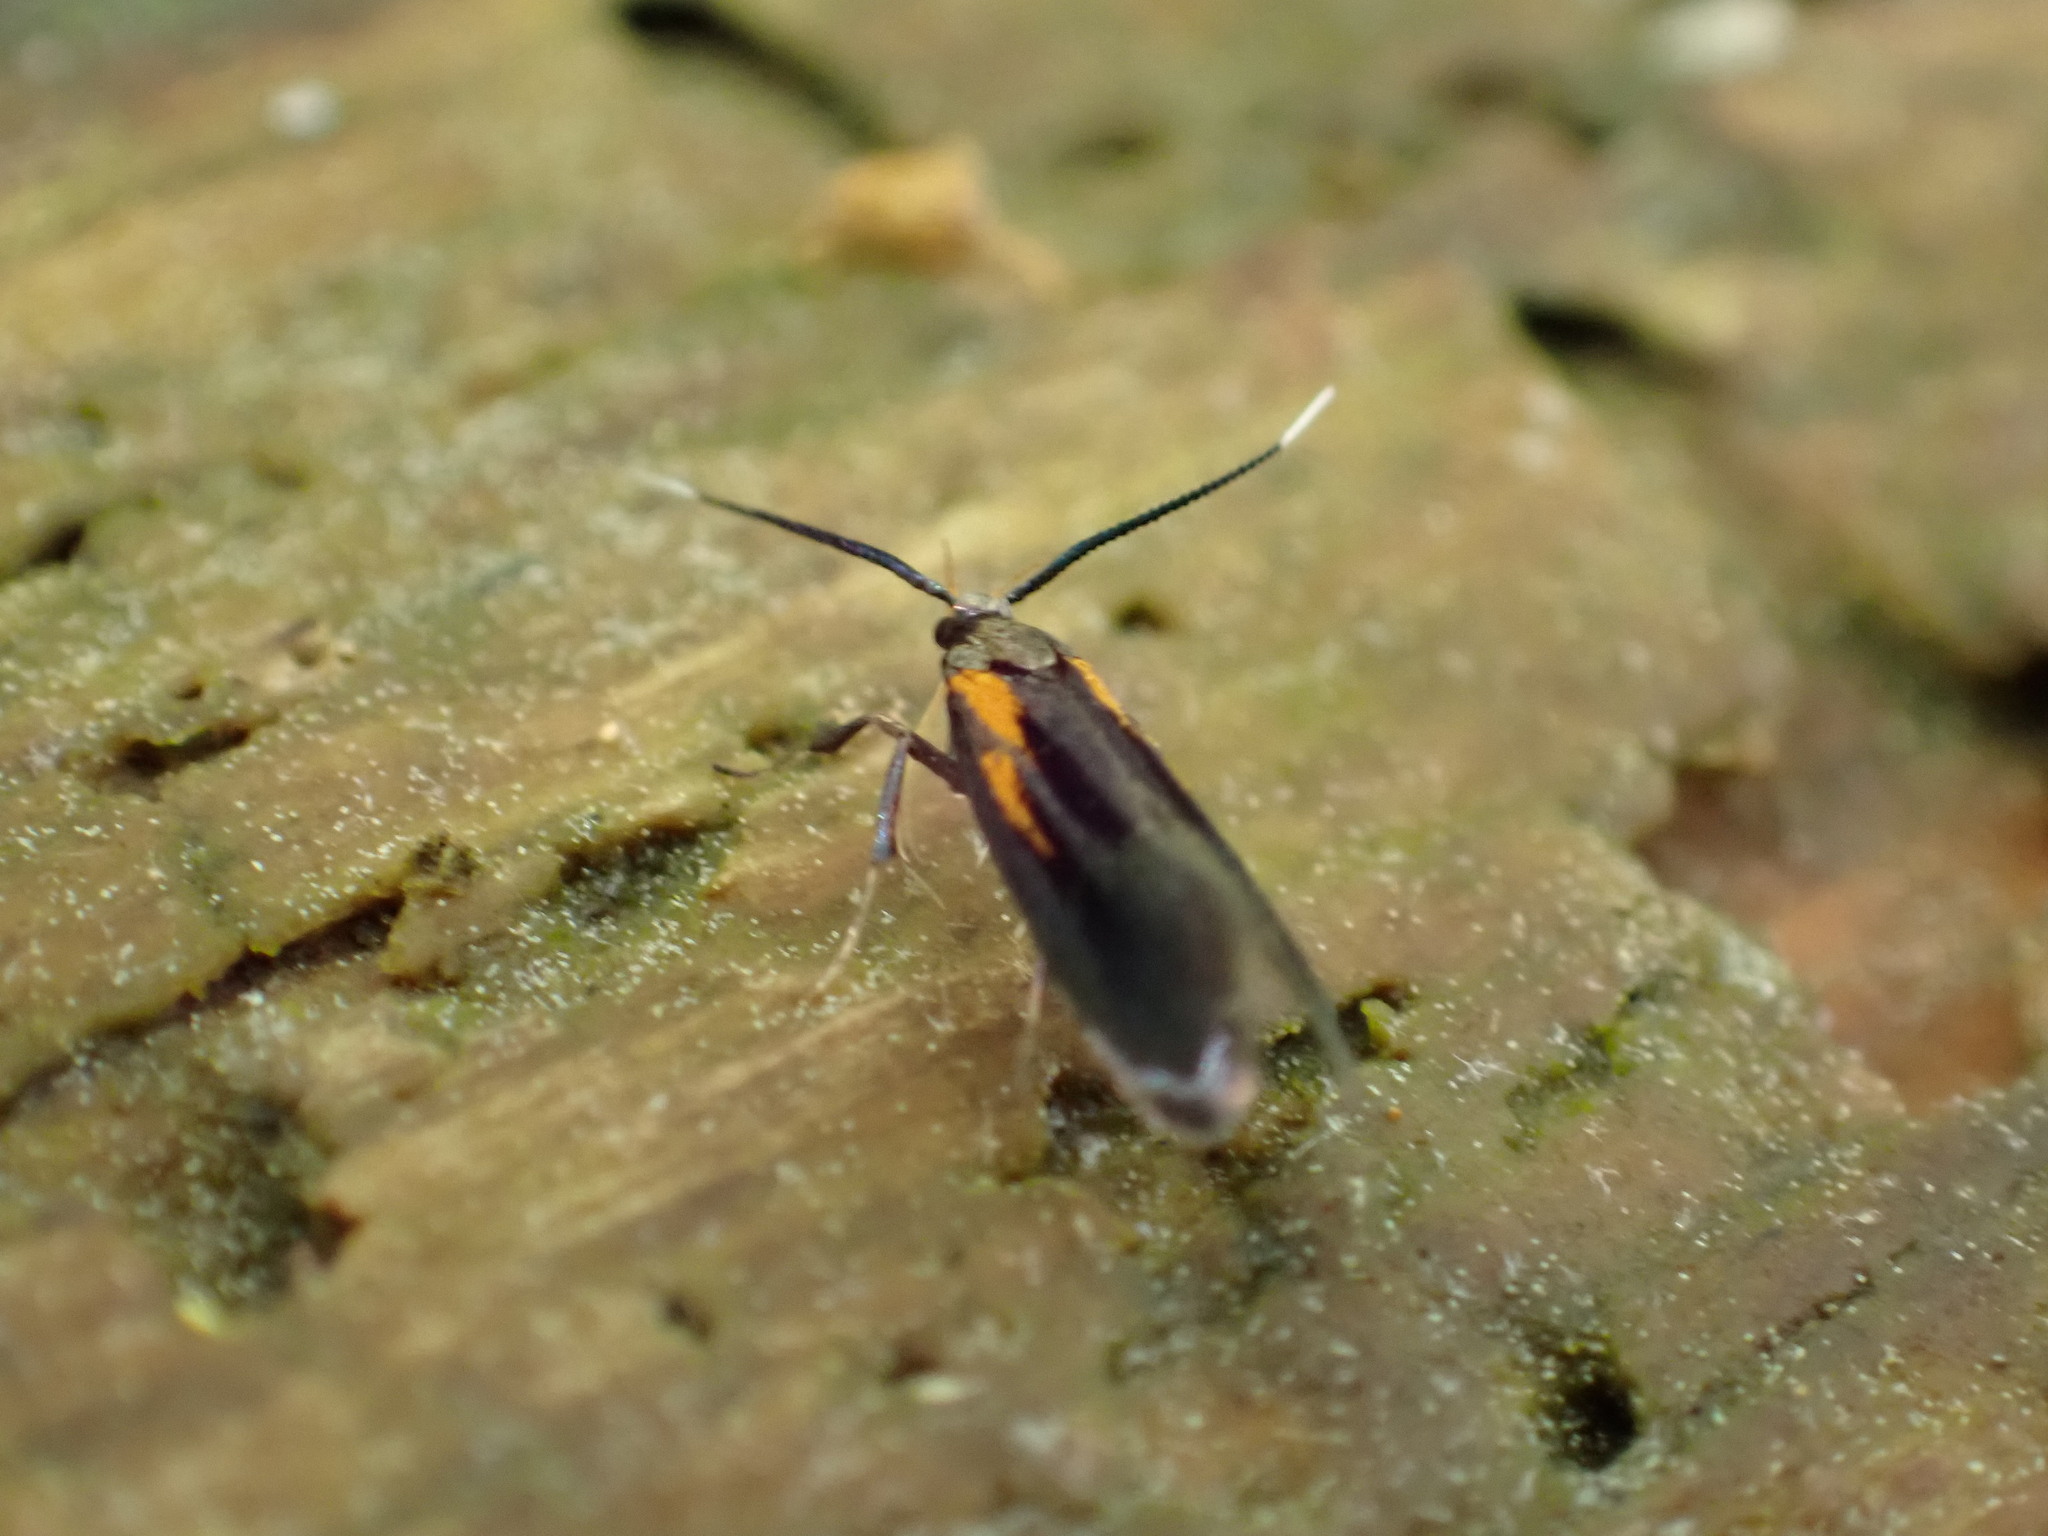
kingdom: Animalia
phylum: Arthropoda
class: Insecta
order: Lepidoptera
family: Oecophoridae
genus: Mathildana
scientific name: Mathildana newmanella
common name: Newman's mathildana moth
